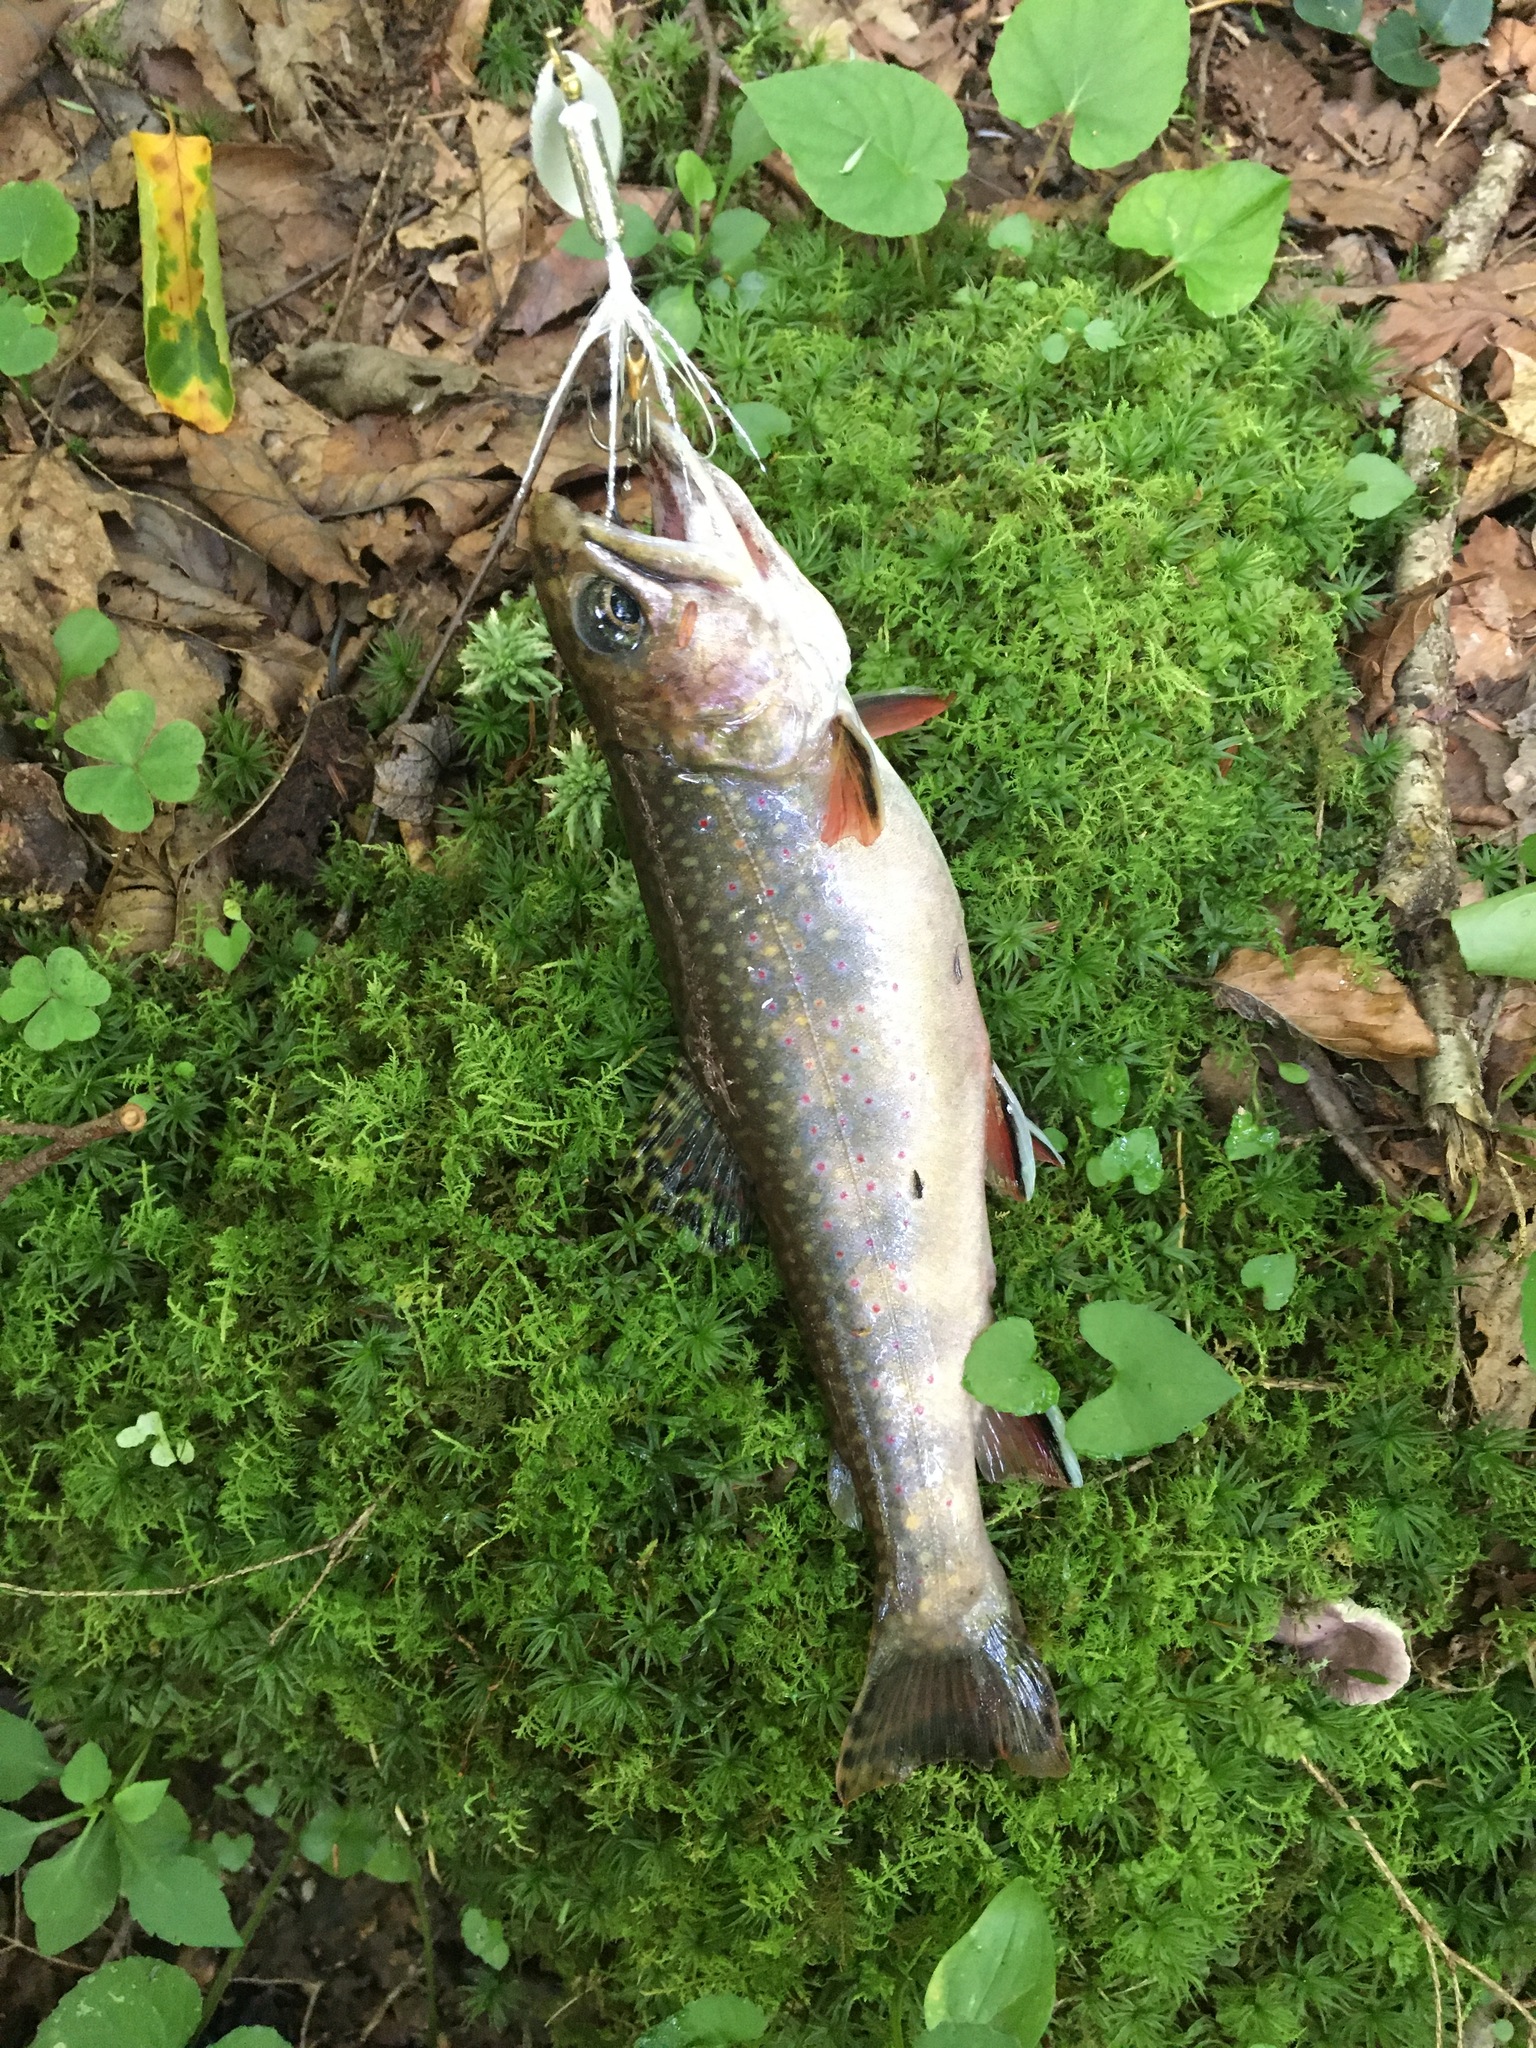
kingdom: Animalia
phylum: Chordata
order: Salmoniformes
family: Salmonidae
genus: Salvelinus
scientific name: Salvelinus fontinalis
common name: Brook trout
